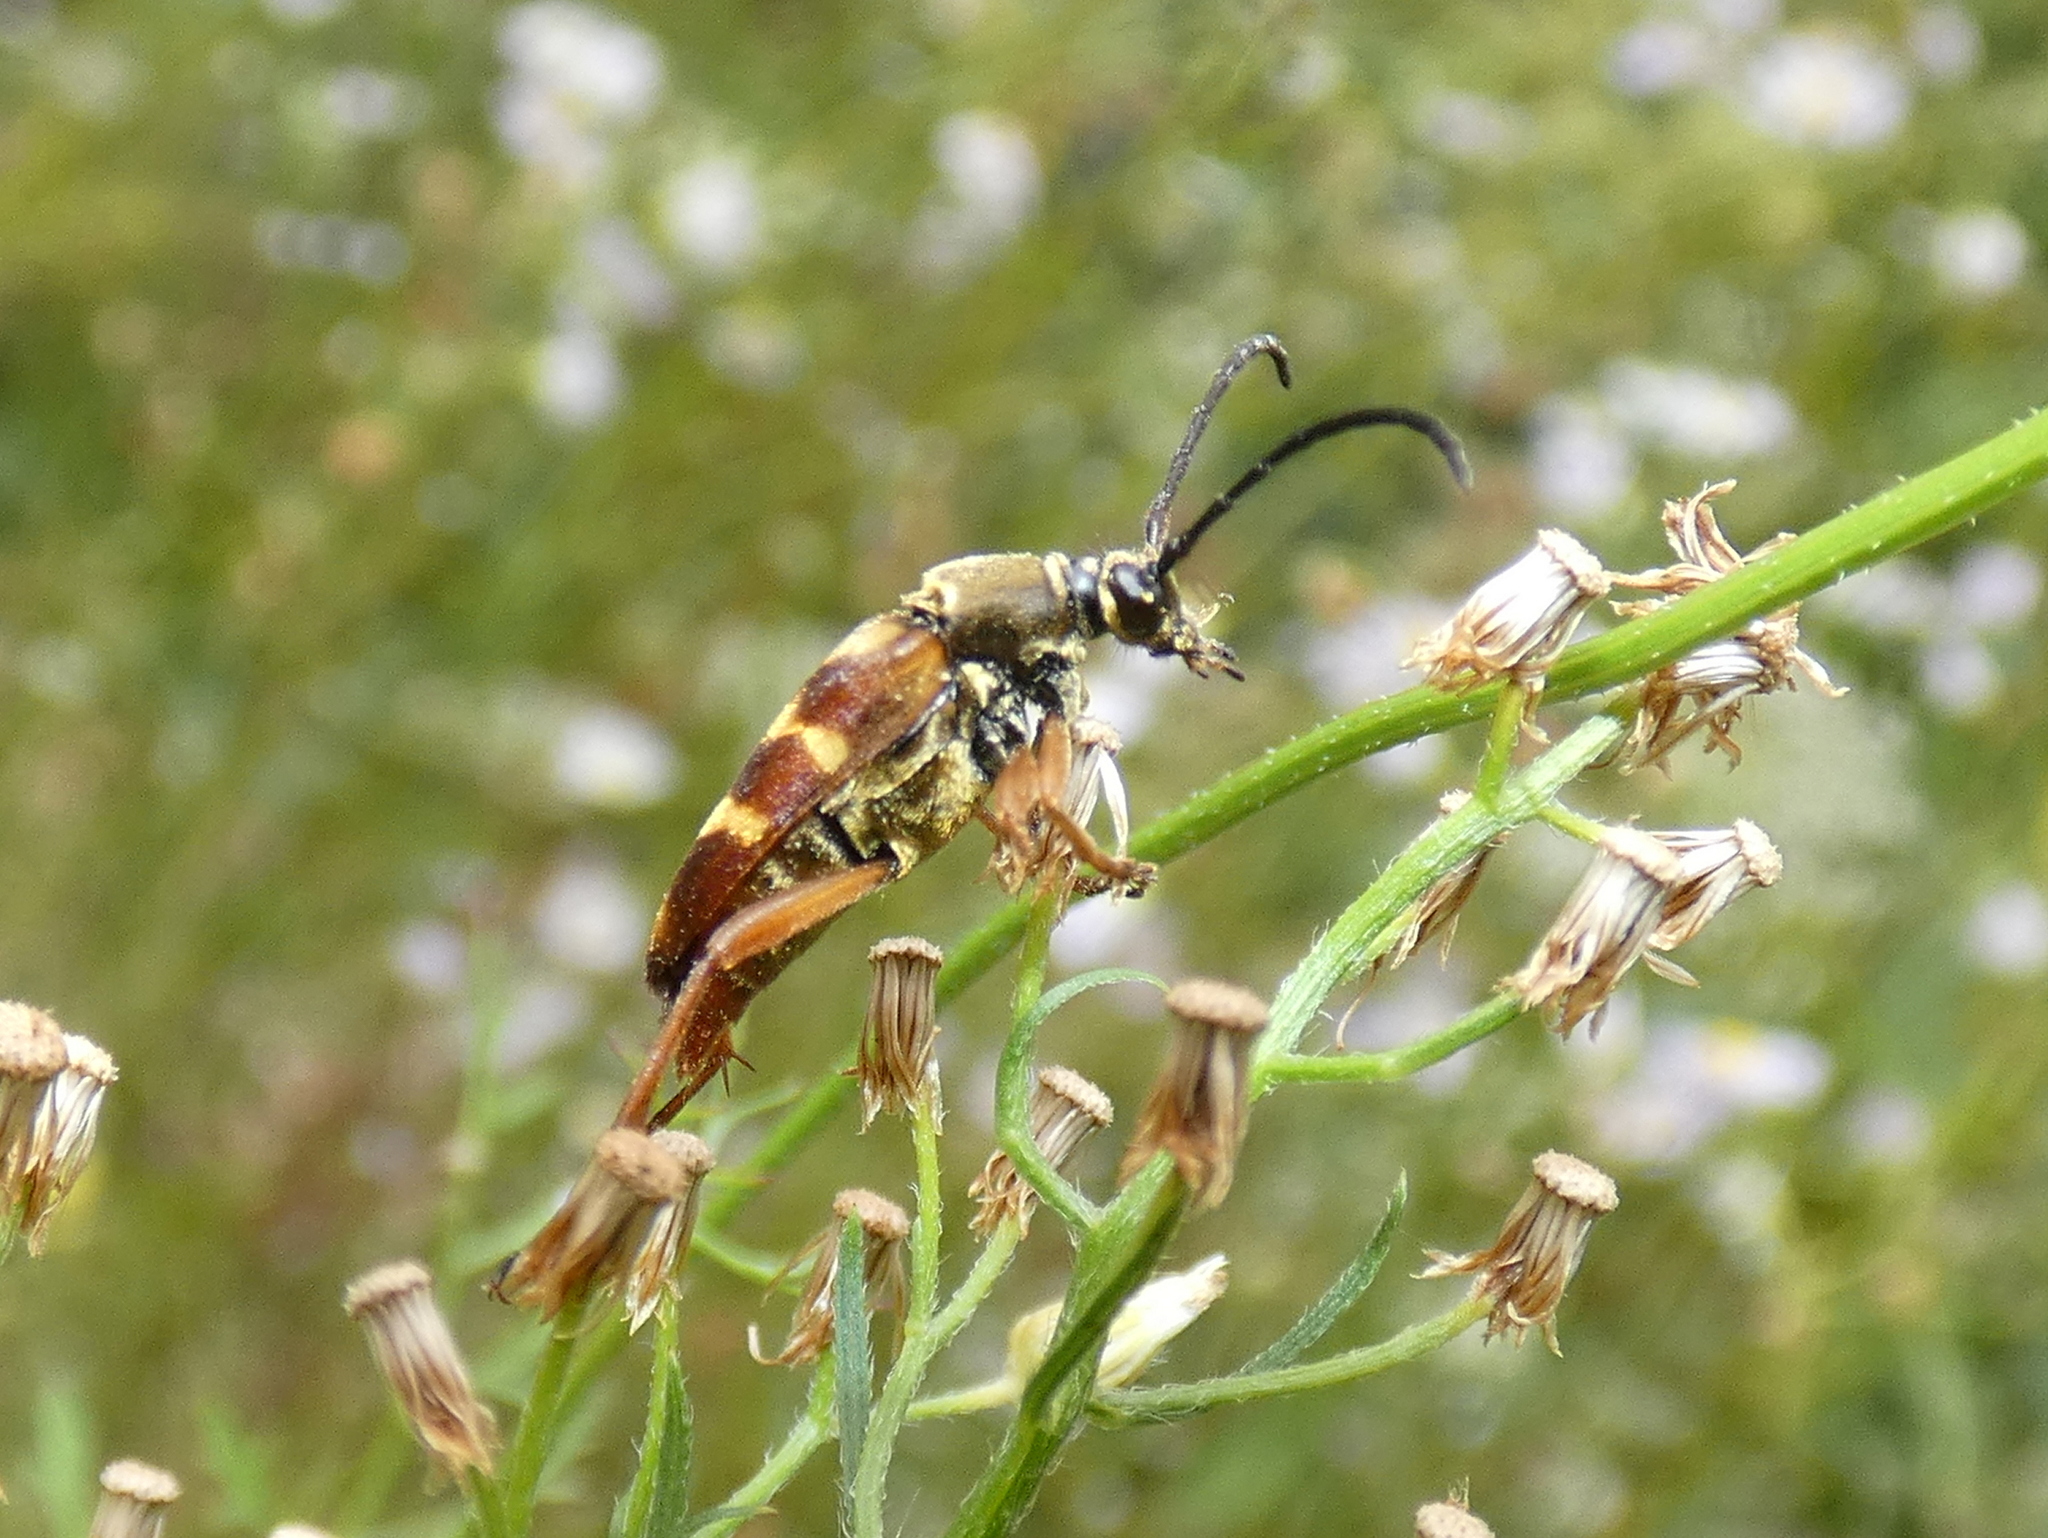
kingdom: Animalia
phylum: Arthropoda
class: Insecta
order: Coleoptera
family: Cerambycidae
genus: Typocerus
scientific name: Typocerus velutinus
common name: Banded longhorn beetle
